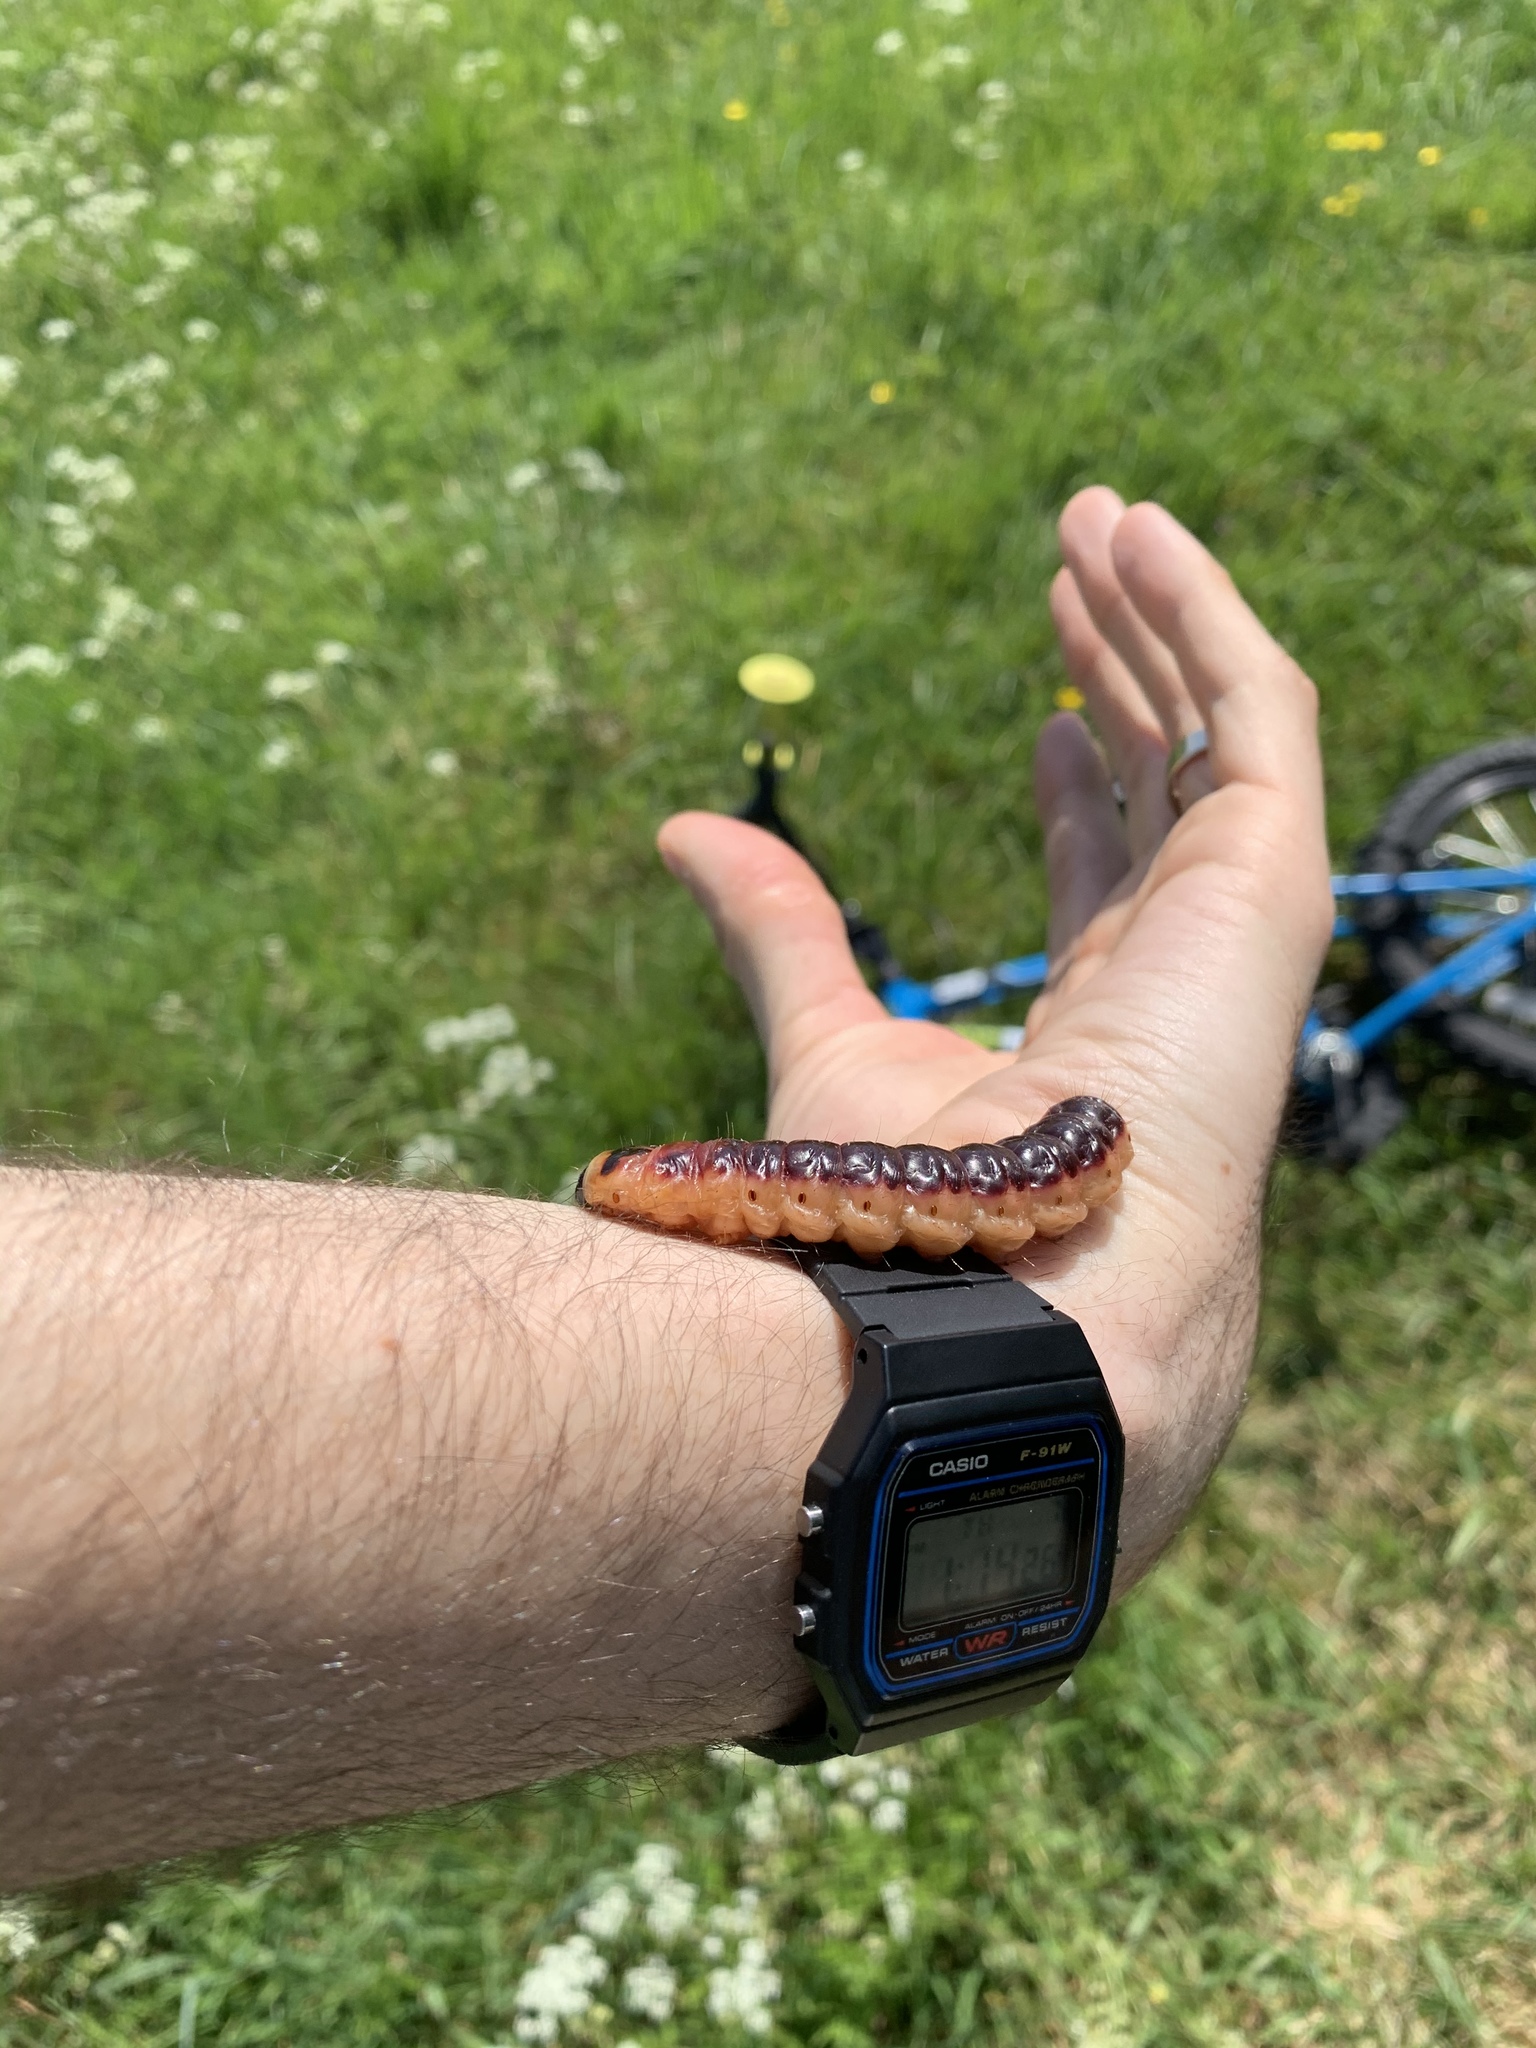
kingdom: Animalia
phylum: Arthropoda
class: Insecta
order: Lepidoptera
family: Cossidae
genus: Cossus
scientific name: Cossus cossus
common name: Goat moth
